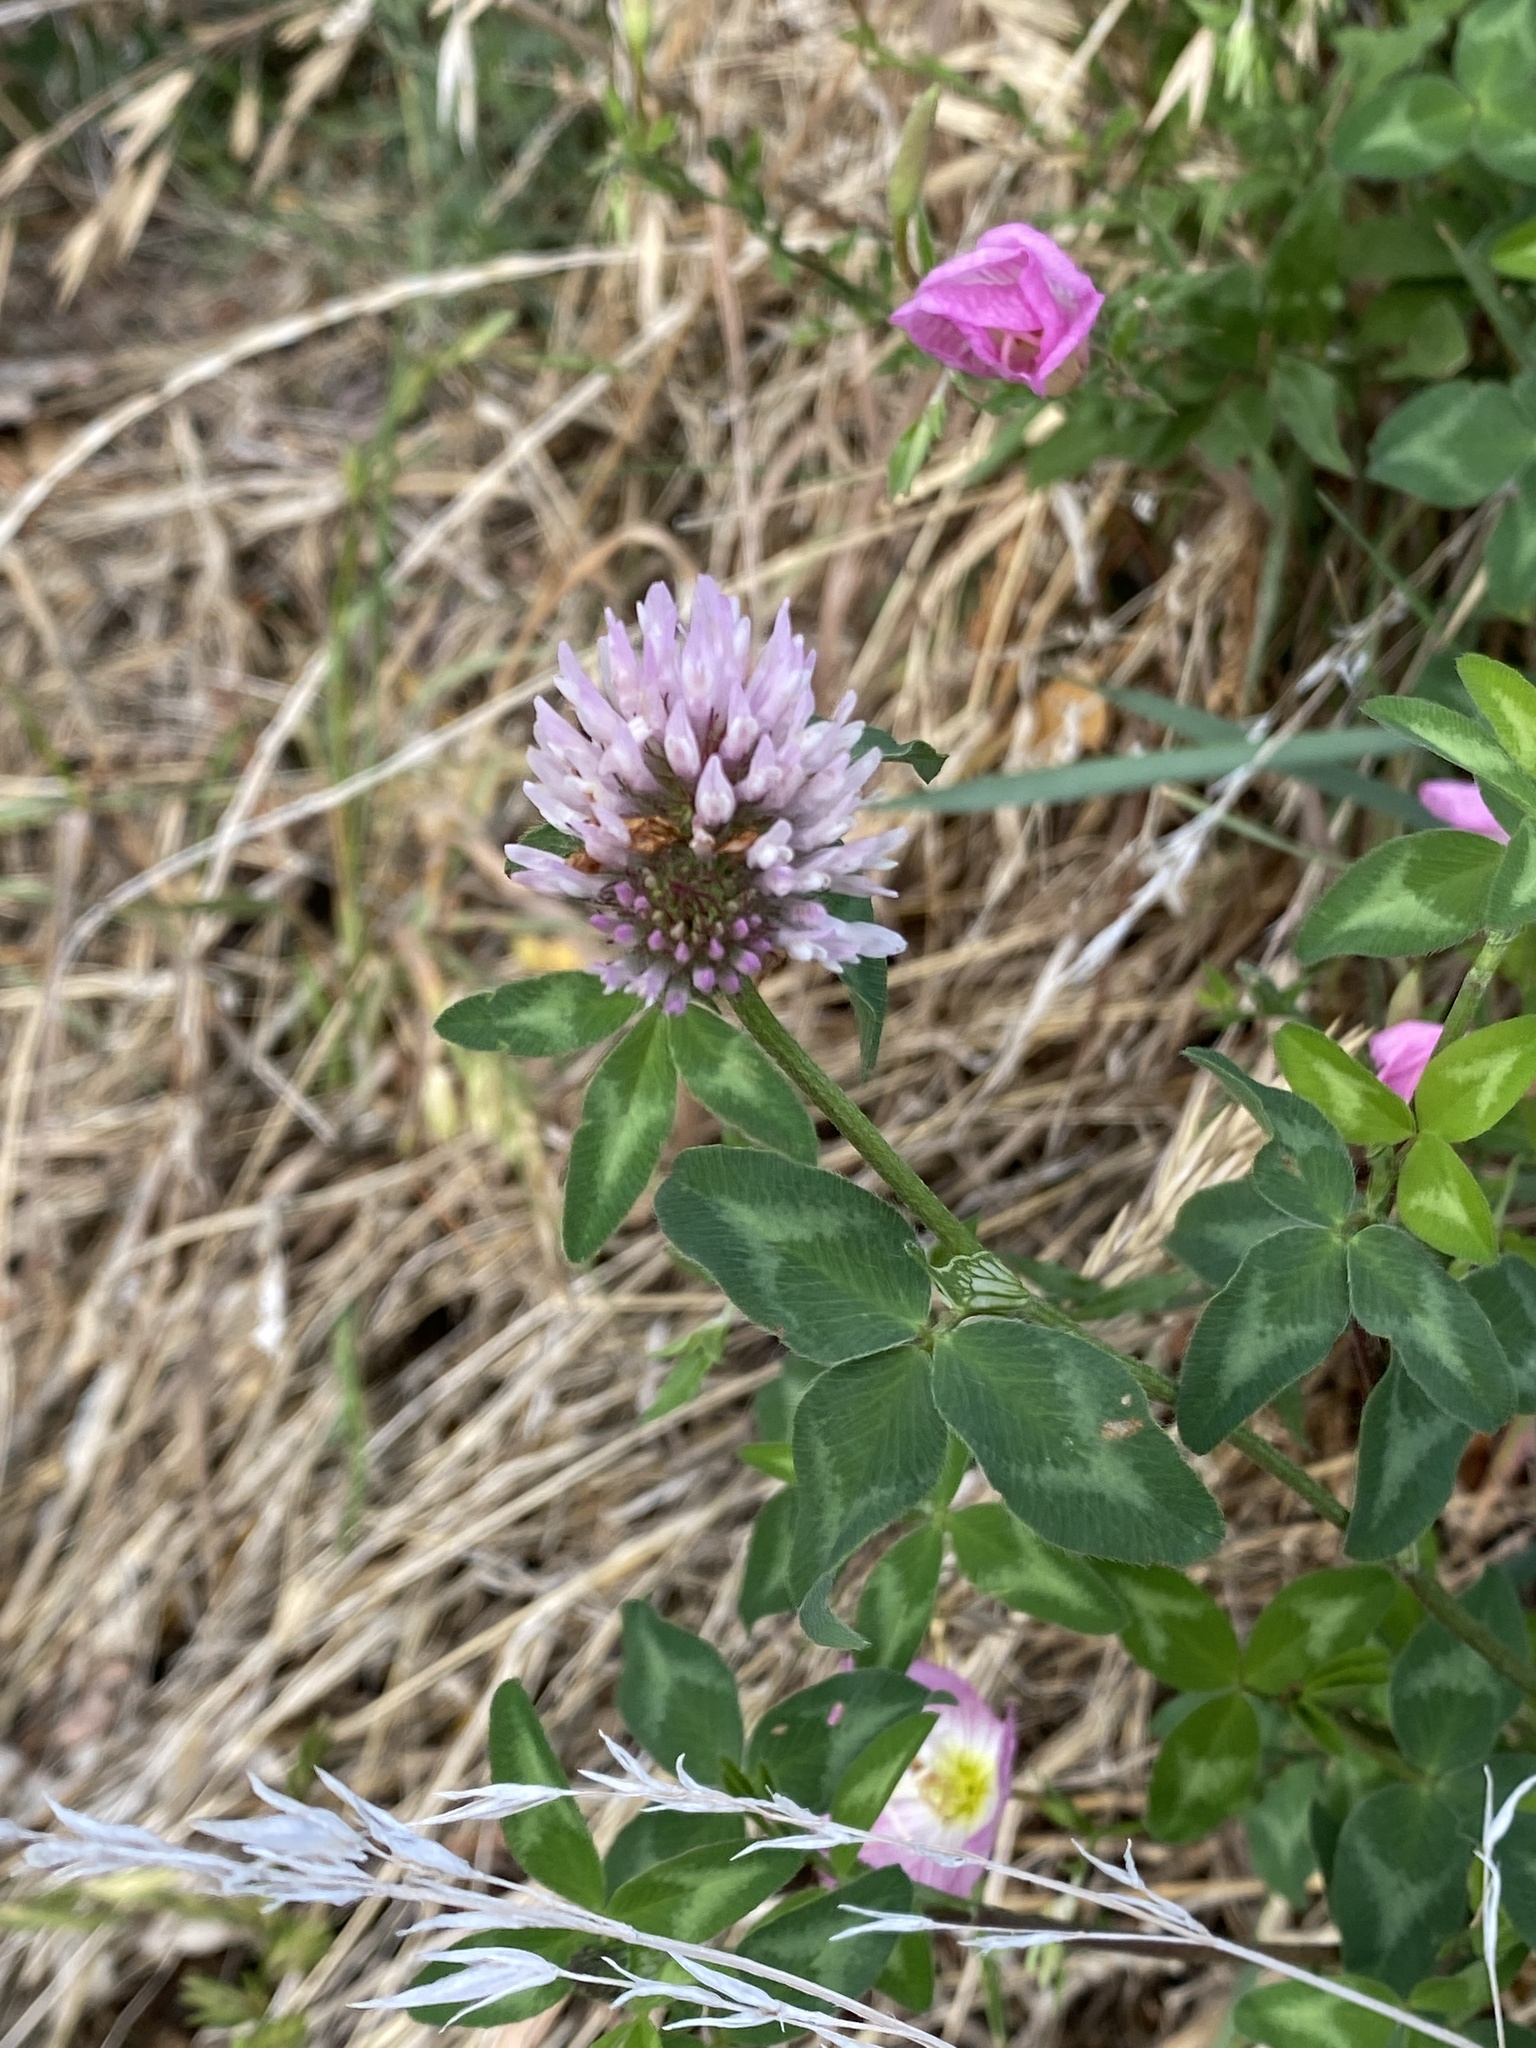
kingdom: Plantae
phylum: Tracheophyta
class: Magnoliopsida
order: Fabales
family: Fabaceae
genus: Trifolium
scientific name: Trifolium pratense
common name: Red clover
